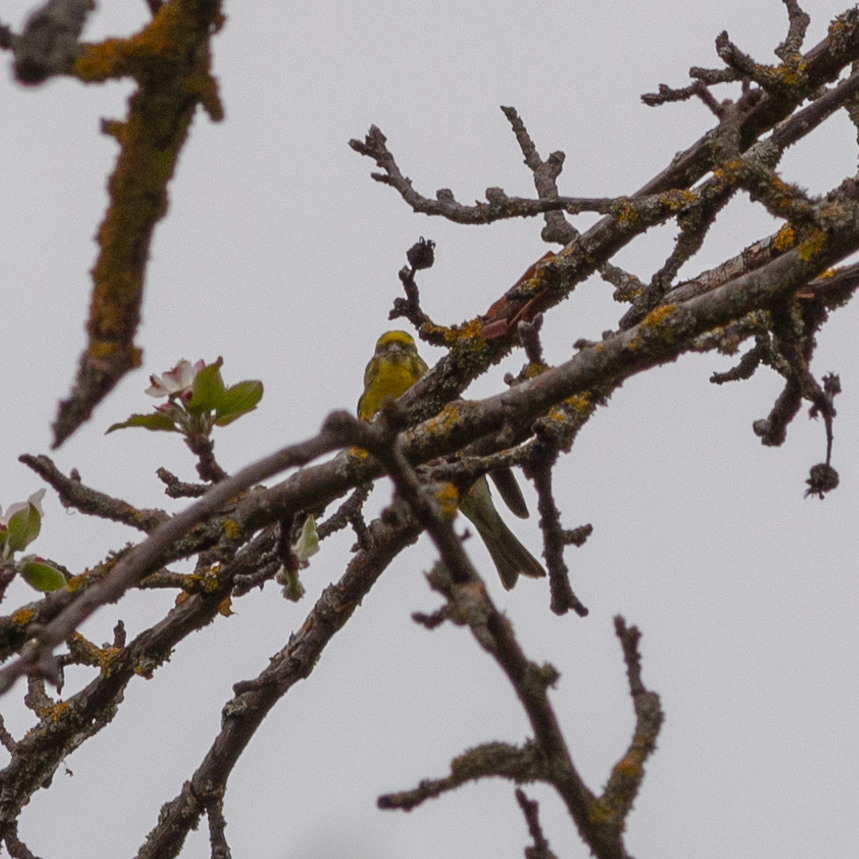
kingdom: Animalia
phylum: Chordata
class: Aves
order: Passeriformes
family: Fringillidae
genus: Serinus
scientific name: Serinus serinus
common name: European serin
